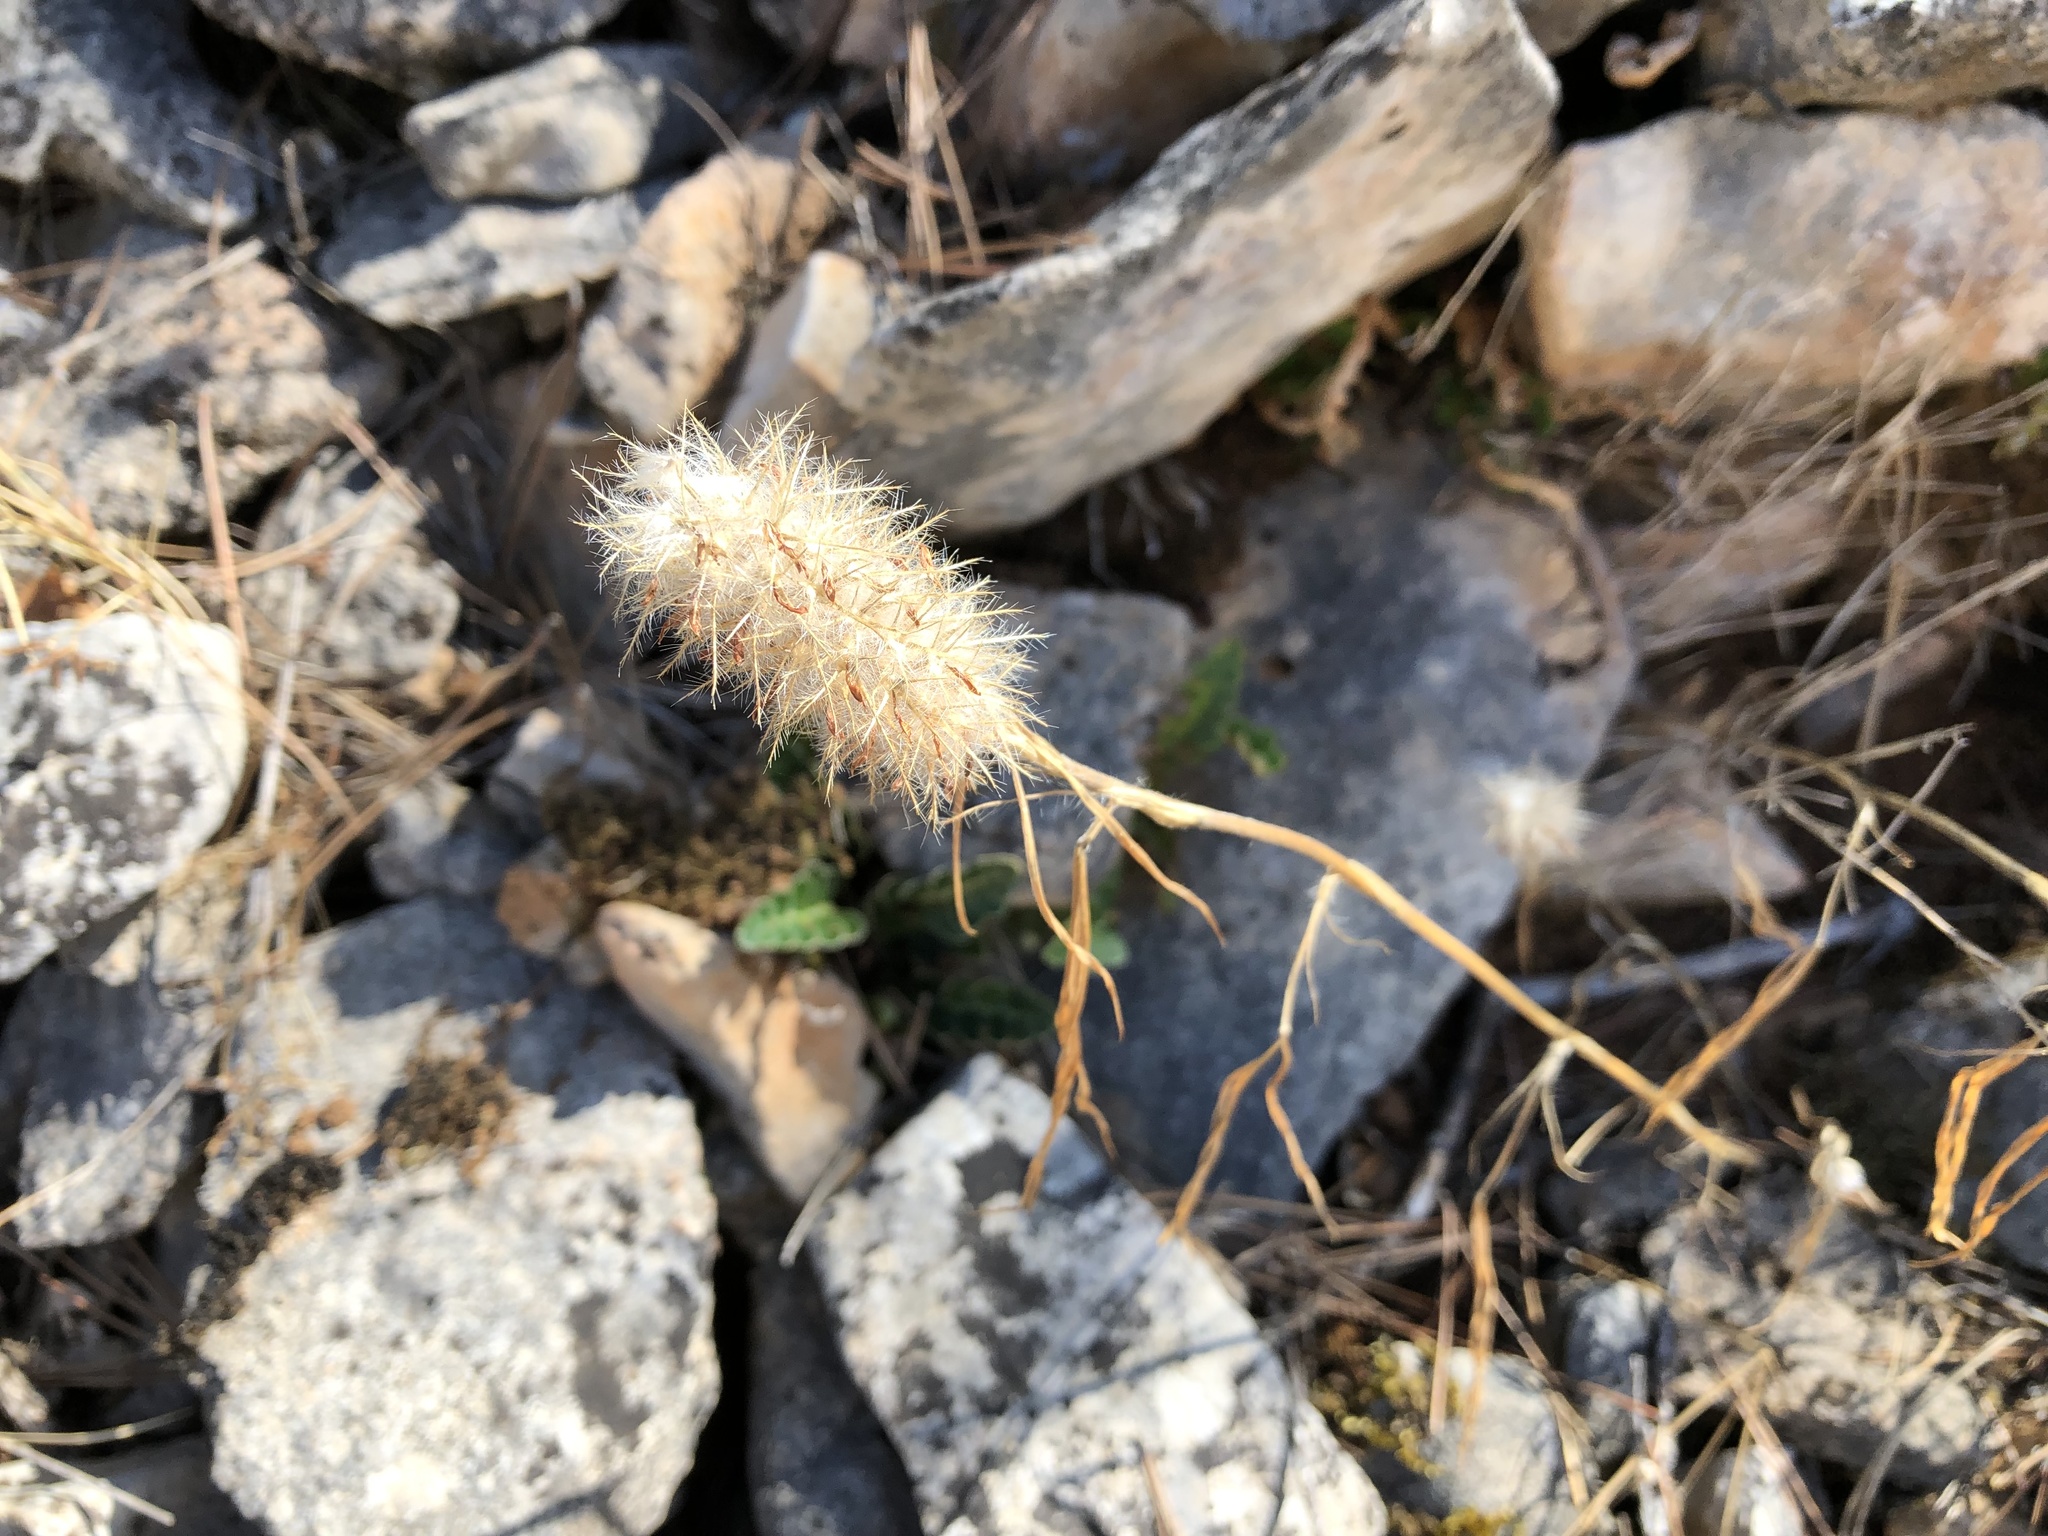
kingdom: Plantae
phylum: Tracheophyta
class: Magnoliopsida
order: Fabales
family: Fabaceae
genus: Trifolium
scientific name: Trifolium angustifolium
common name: Narrow clover
